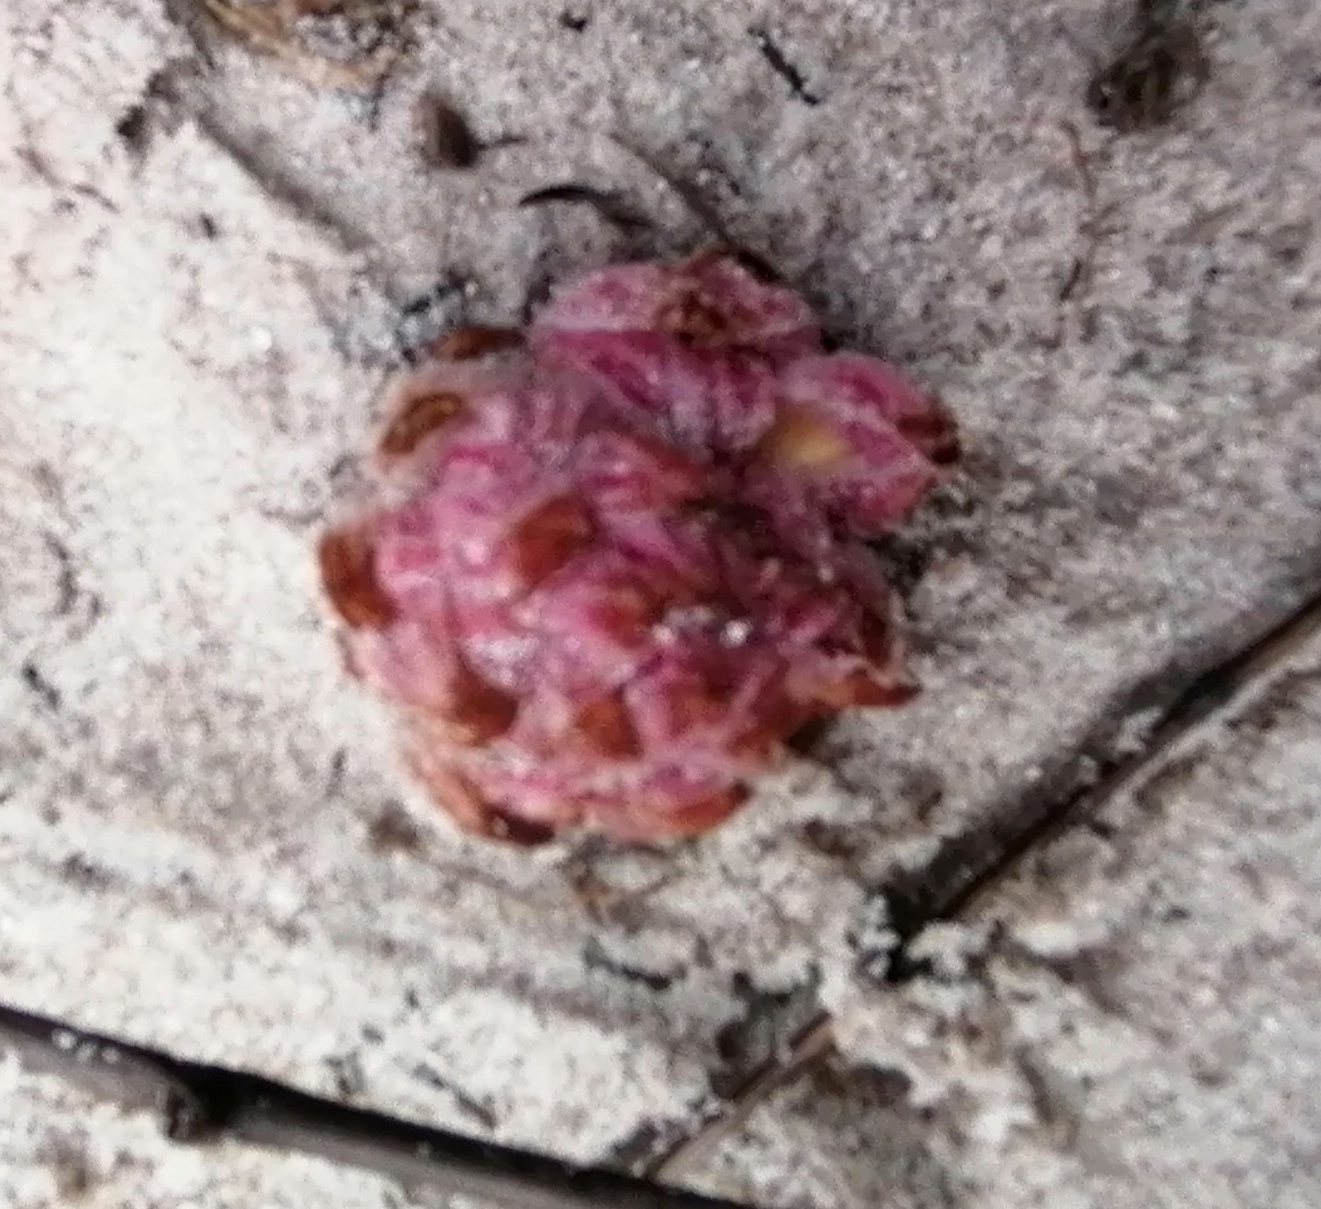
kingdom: Plantae
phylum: Tracheophyta
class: Magnoliopsida
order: Lamiales
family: Orobanchaceae
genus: Hyobanche
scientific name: Hyobanche sanguinea
